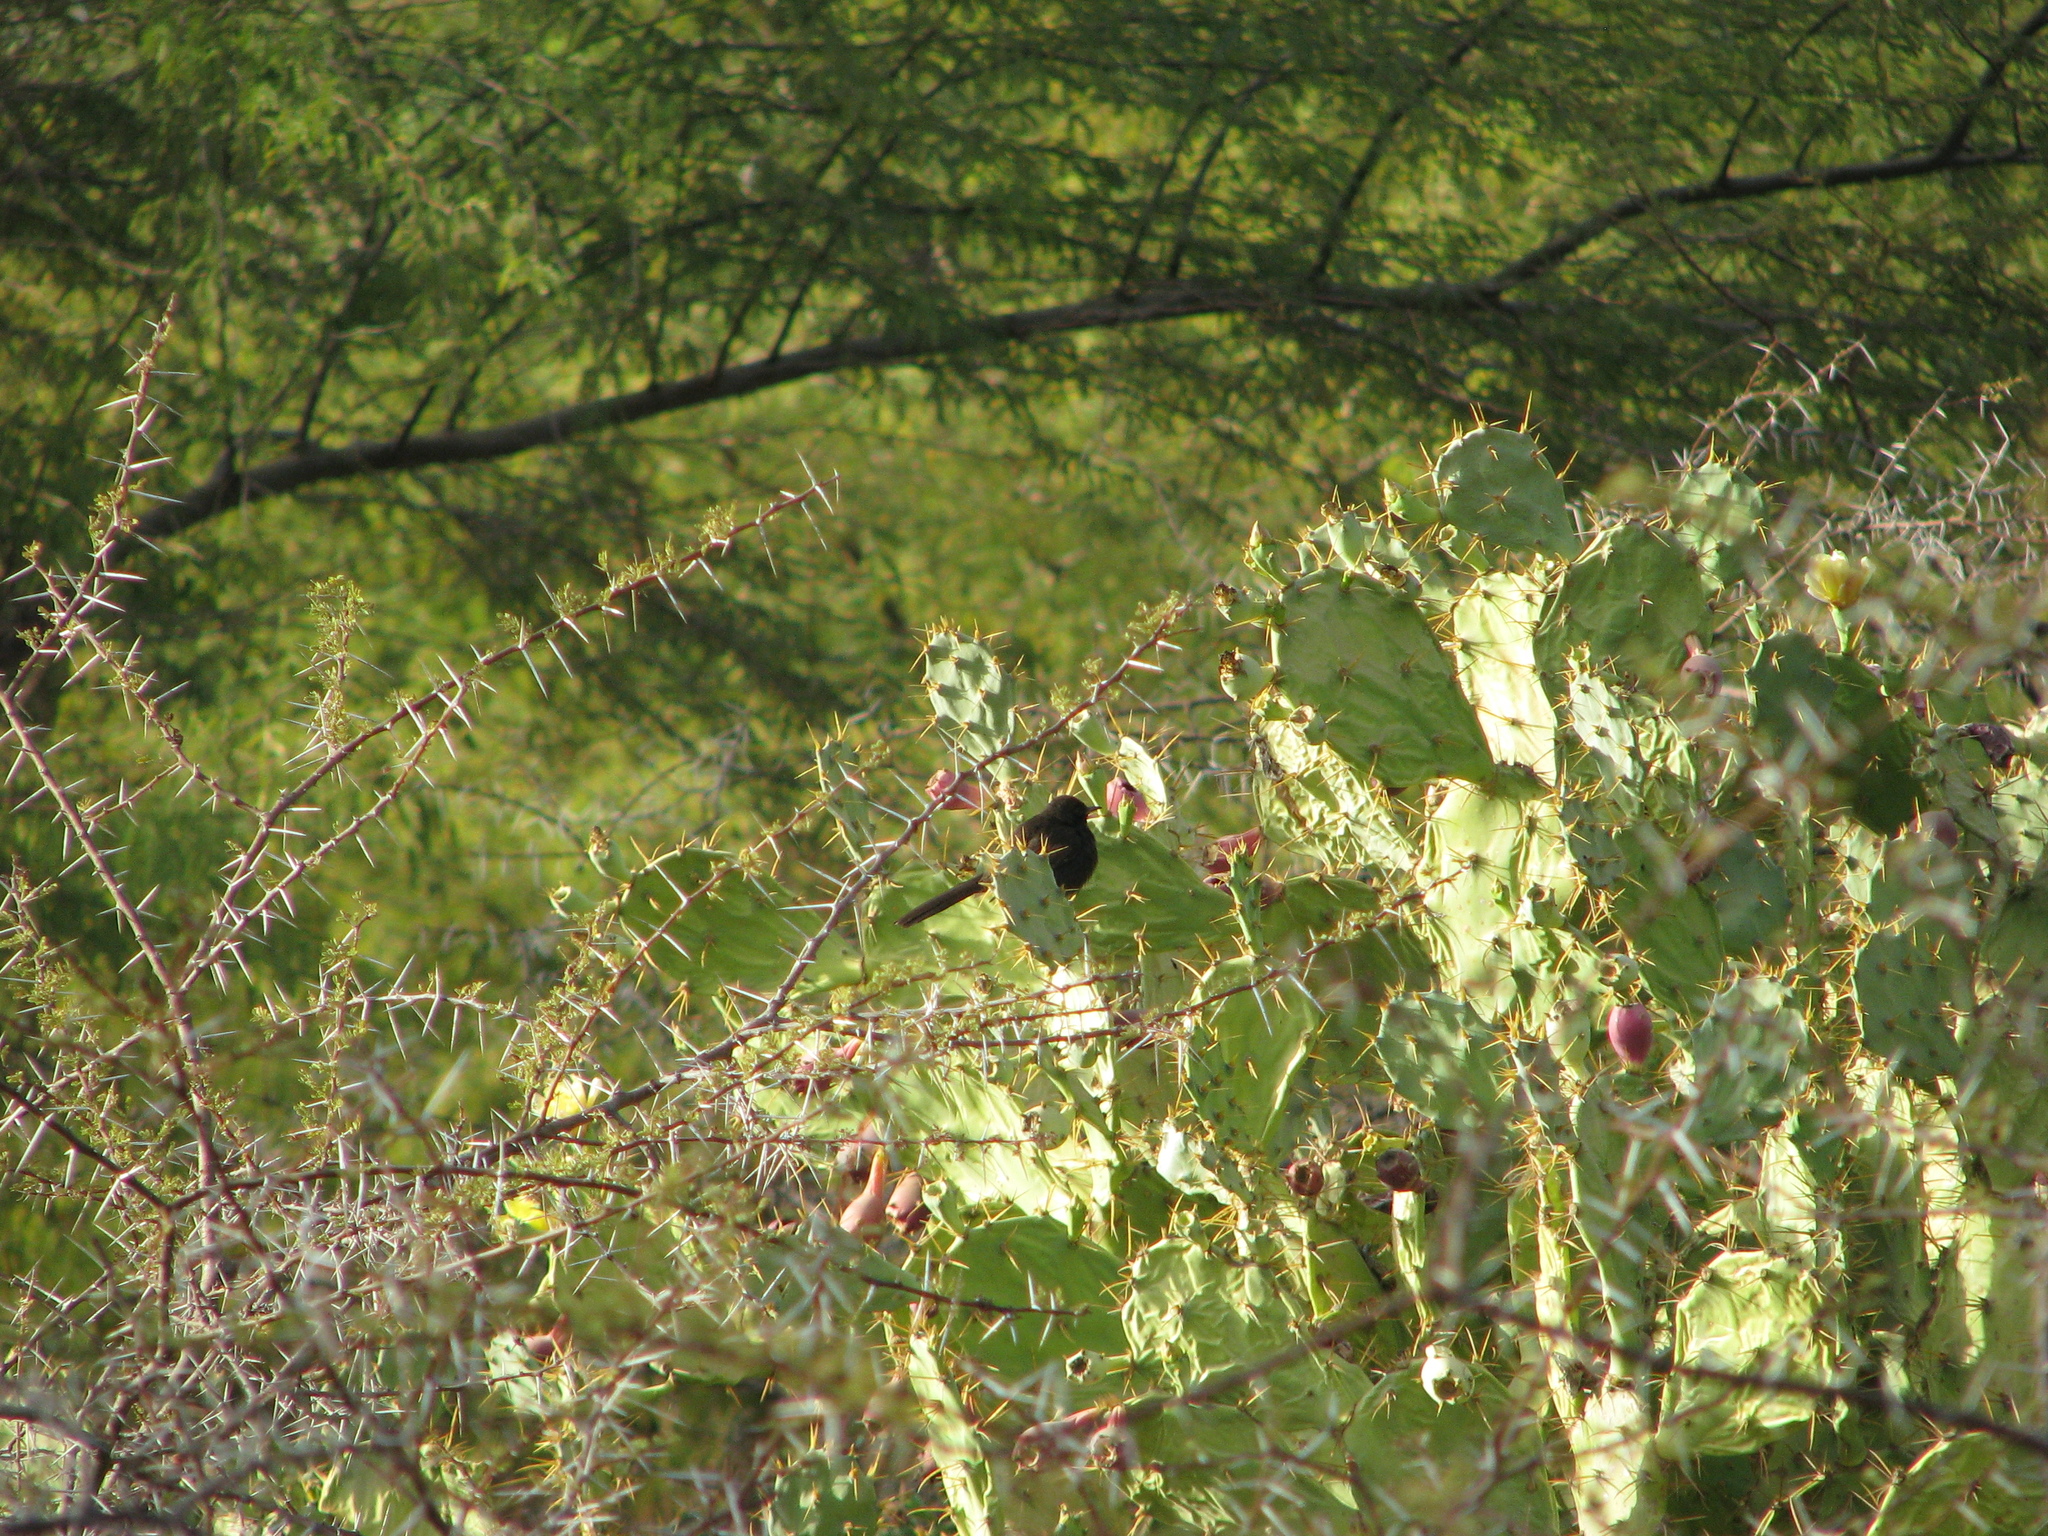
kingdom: Animalia
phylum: Chordata
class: Aves
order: Passeriformes
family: Muscicapidae
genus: Cercotrichas
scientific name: Cercotrichas podobe
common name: Black scrub robin
